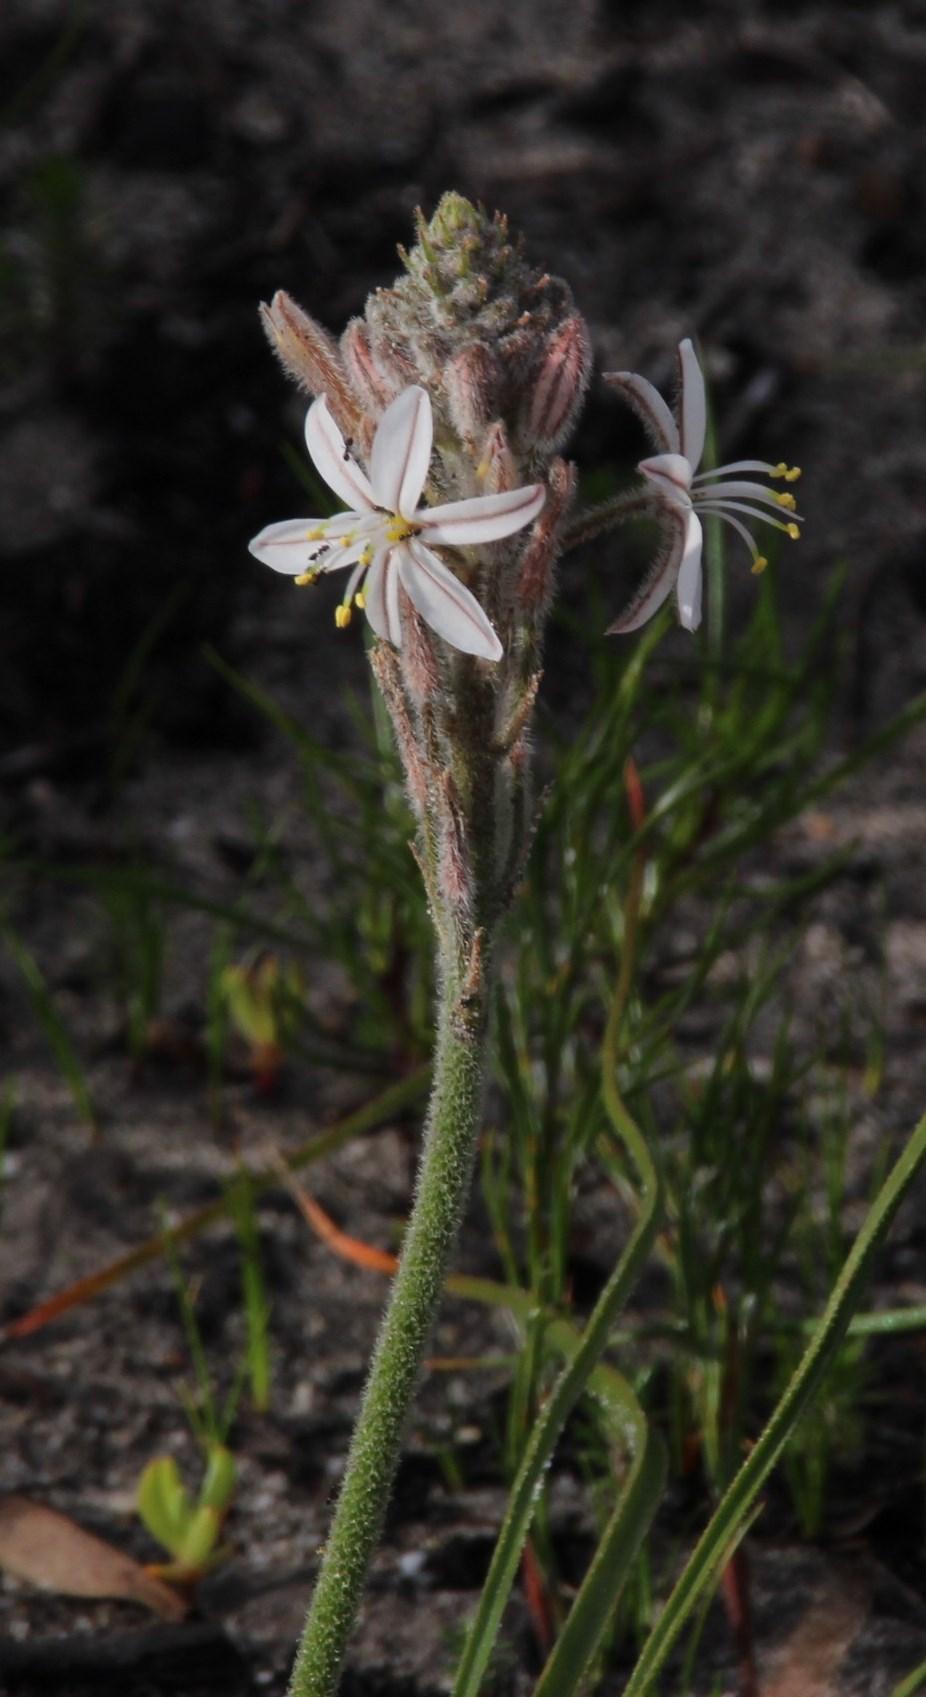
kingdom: Plantae
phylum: Tracheophyta
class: Liliopsida
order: Asparagales
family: Asphodelaceae
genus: Trachyandra
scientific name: Trachyandra hirsutiflora
